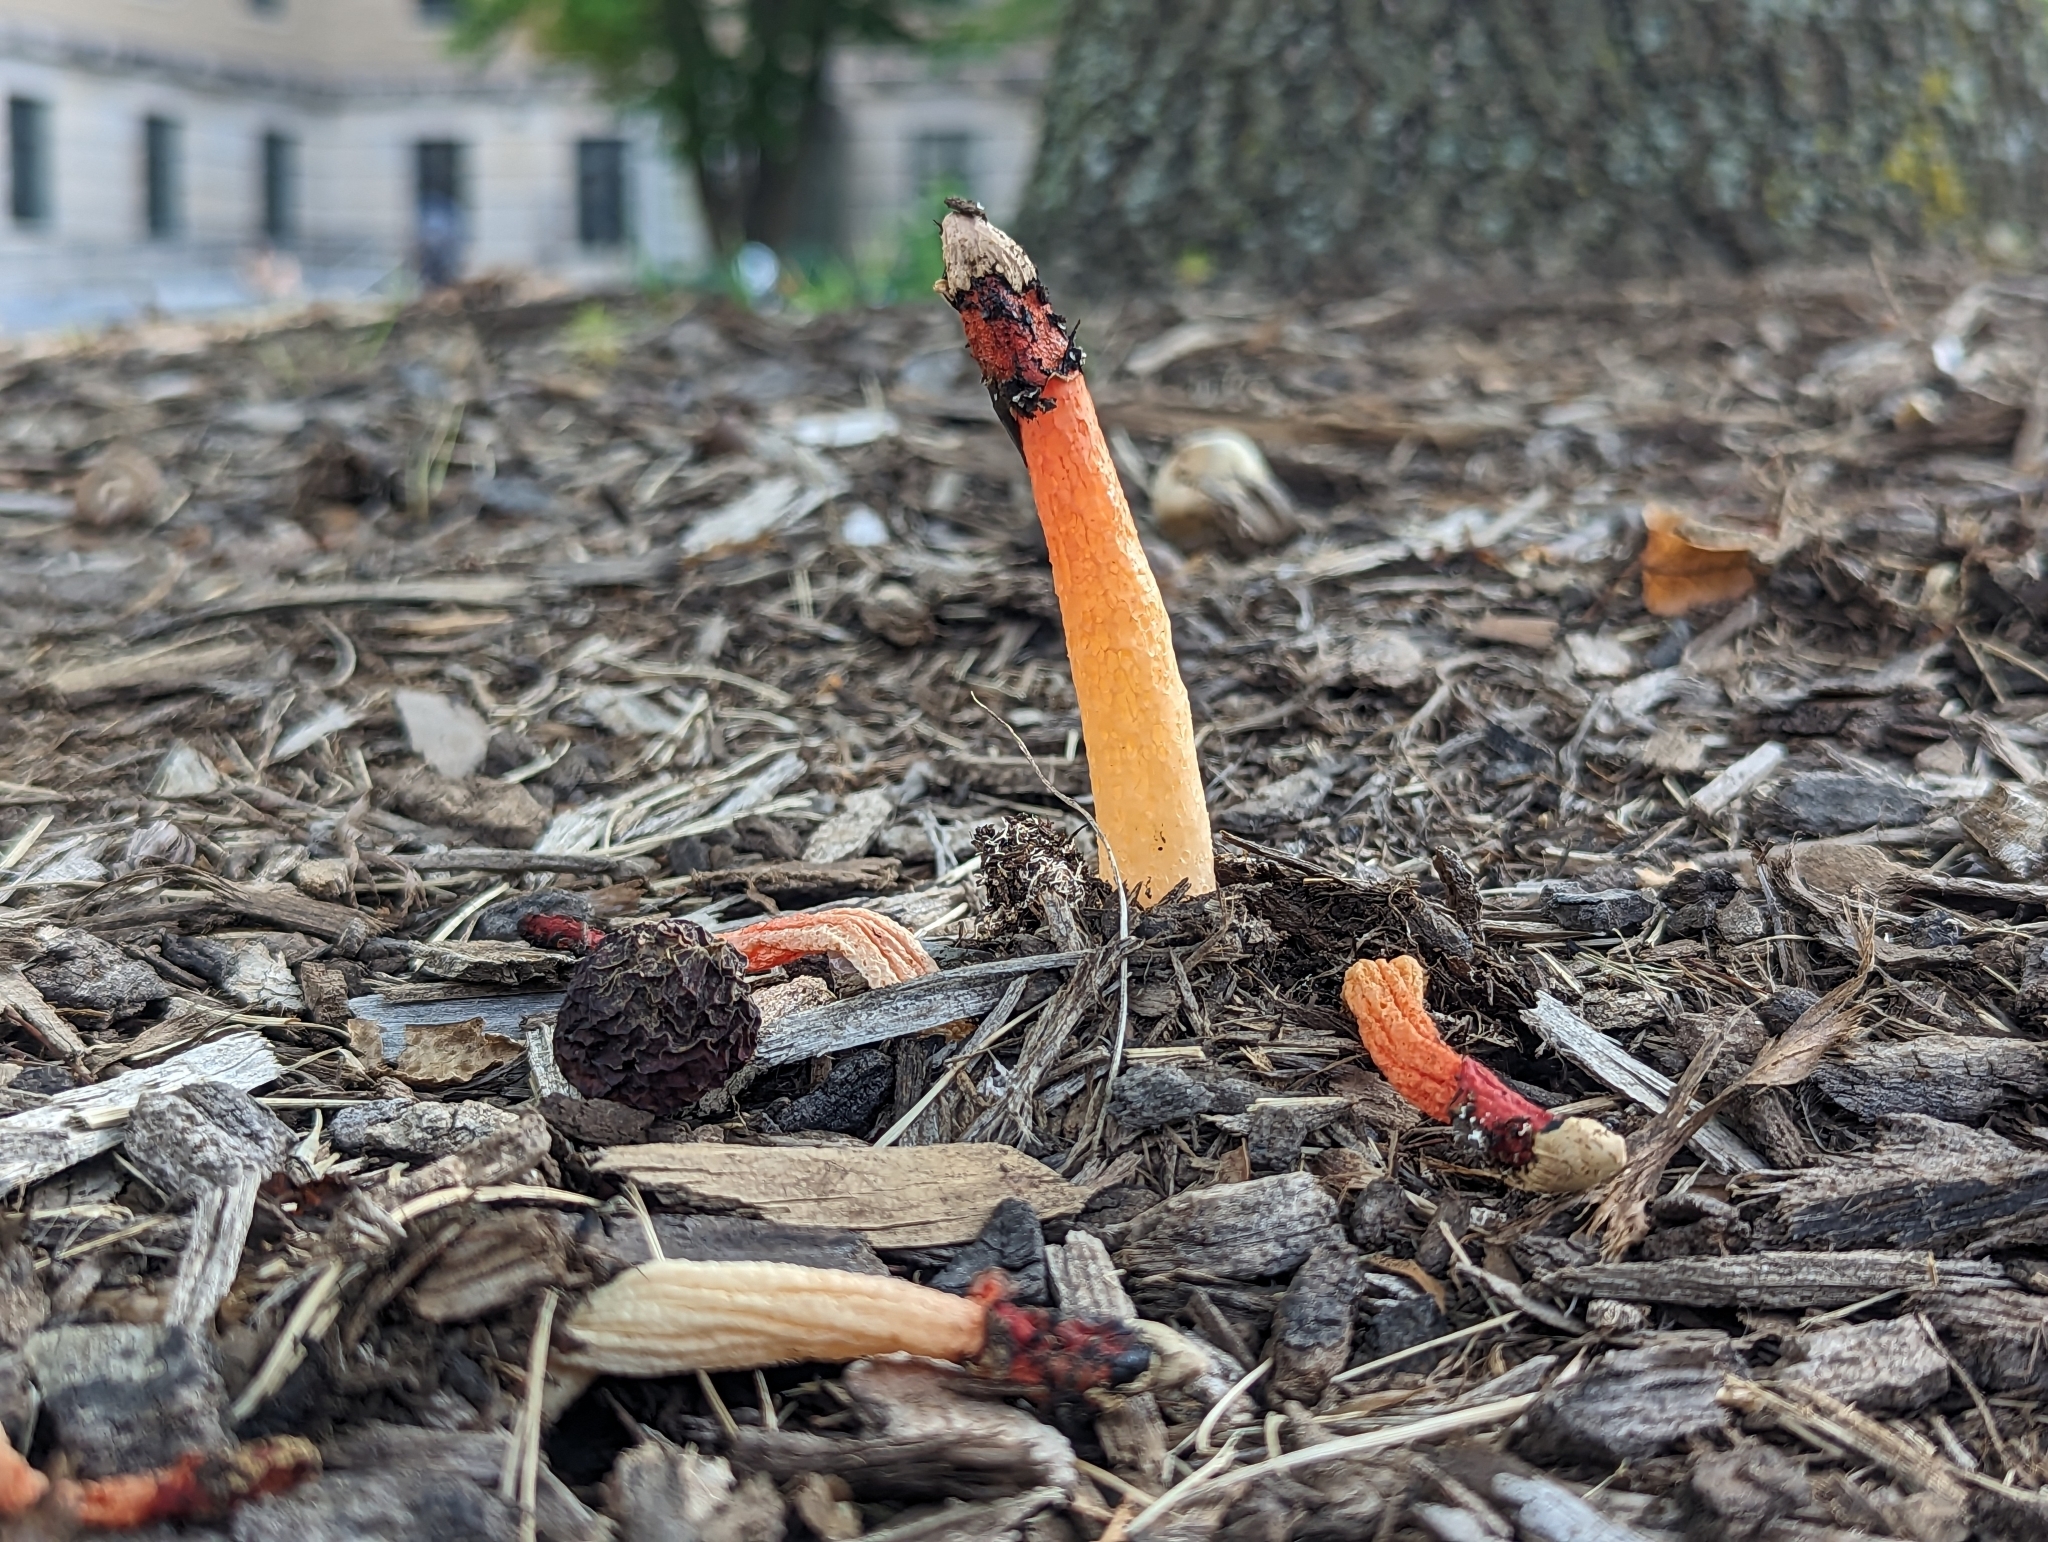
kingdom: Fungi
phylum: Basidiomycota
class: Agaricomycetes
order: Phallales
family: Phallaceae
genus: Phallus
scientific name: Phallus rugulosus
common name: Wrinkly stinkhorn
